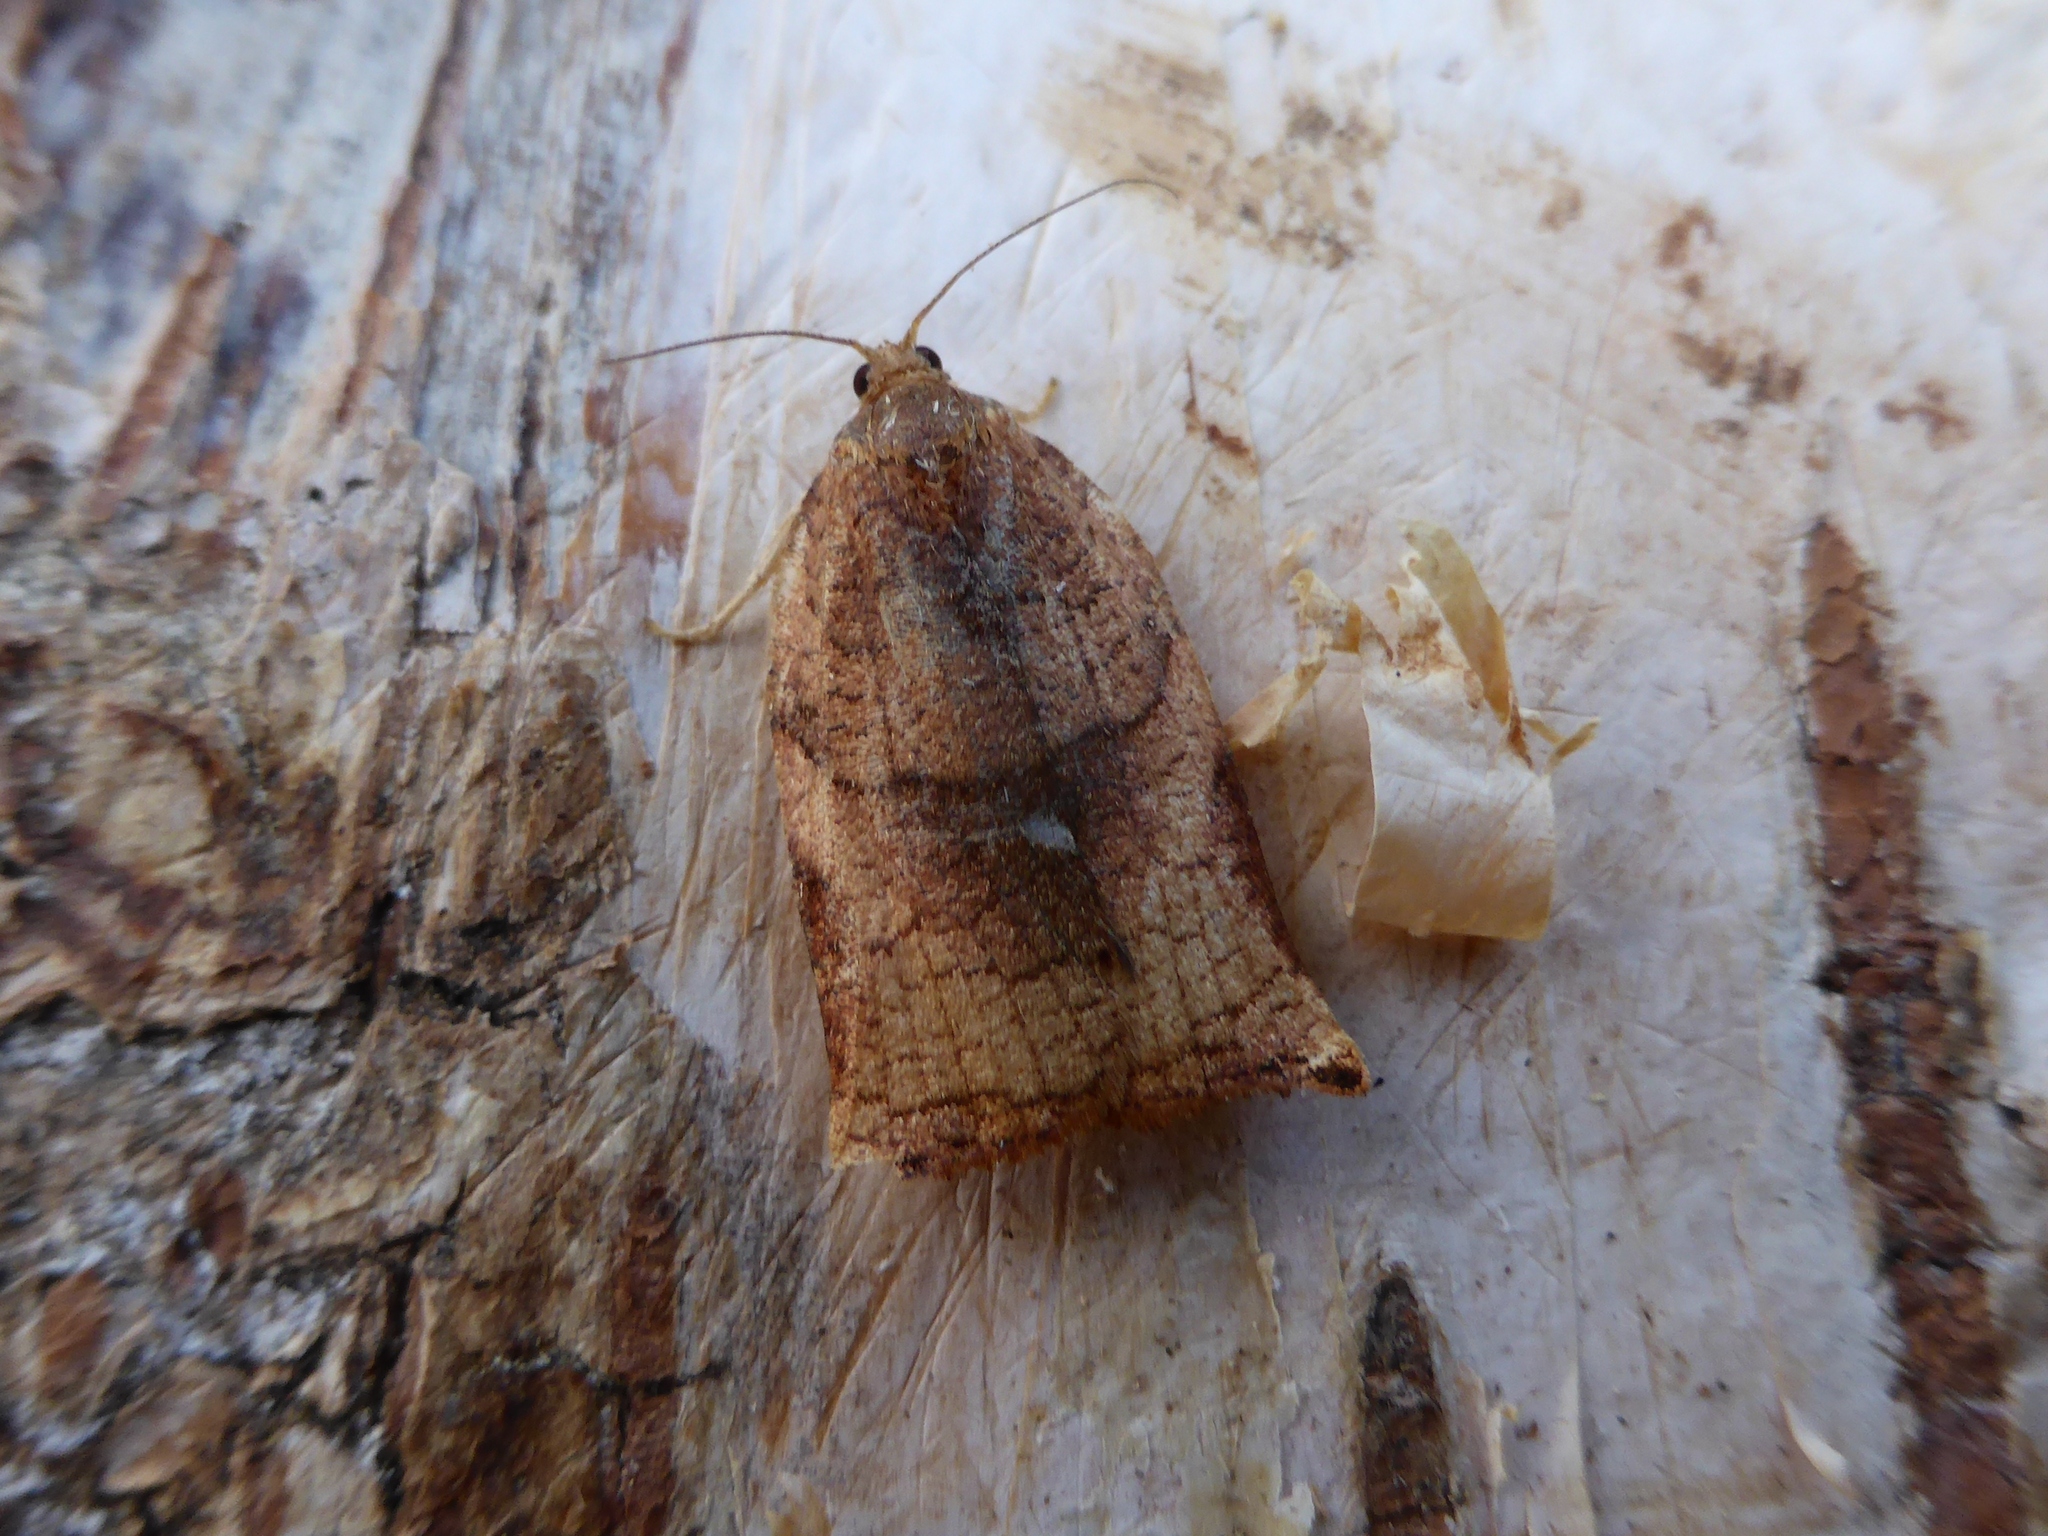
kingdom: Animalia
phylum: Arthropoda
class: Insecta
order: Lepidoptera
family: Tortricidae
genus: Archips
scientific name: Archips podana
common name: Large fruit-tree tortrix
